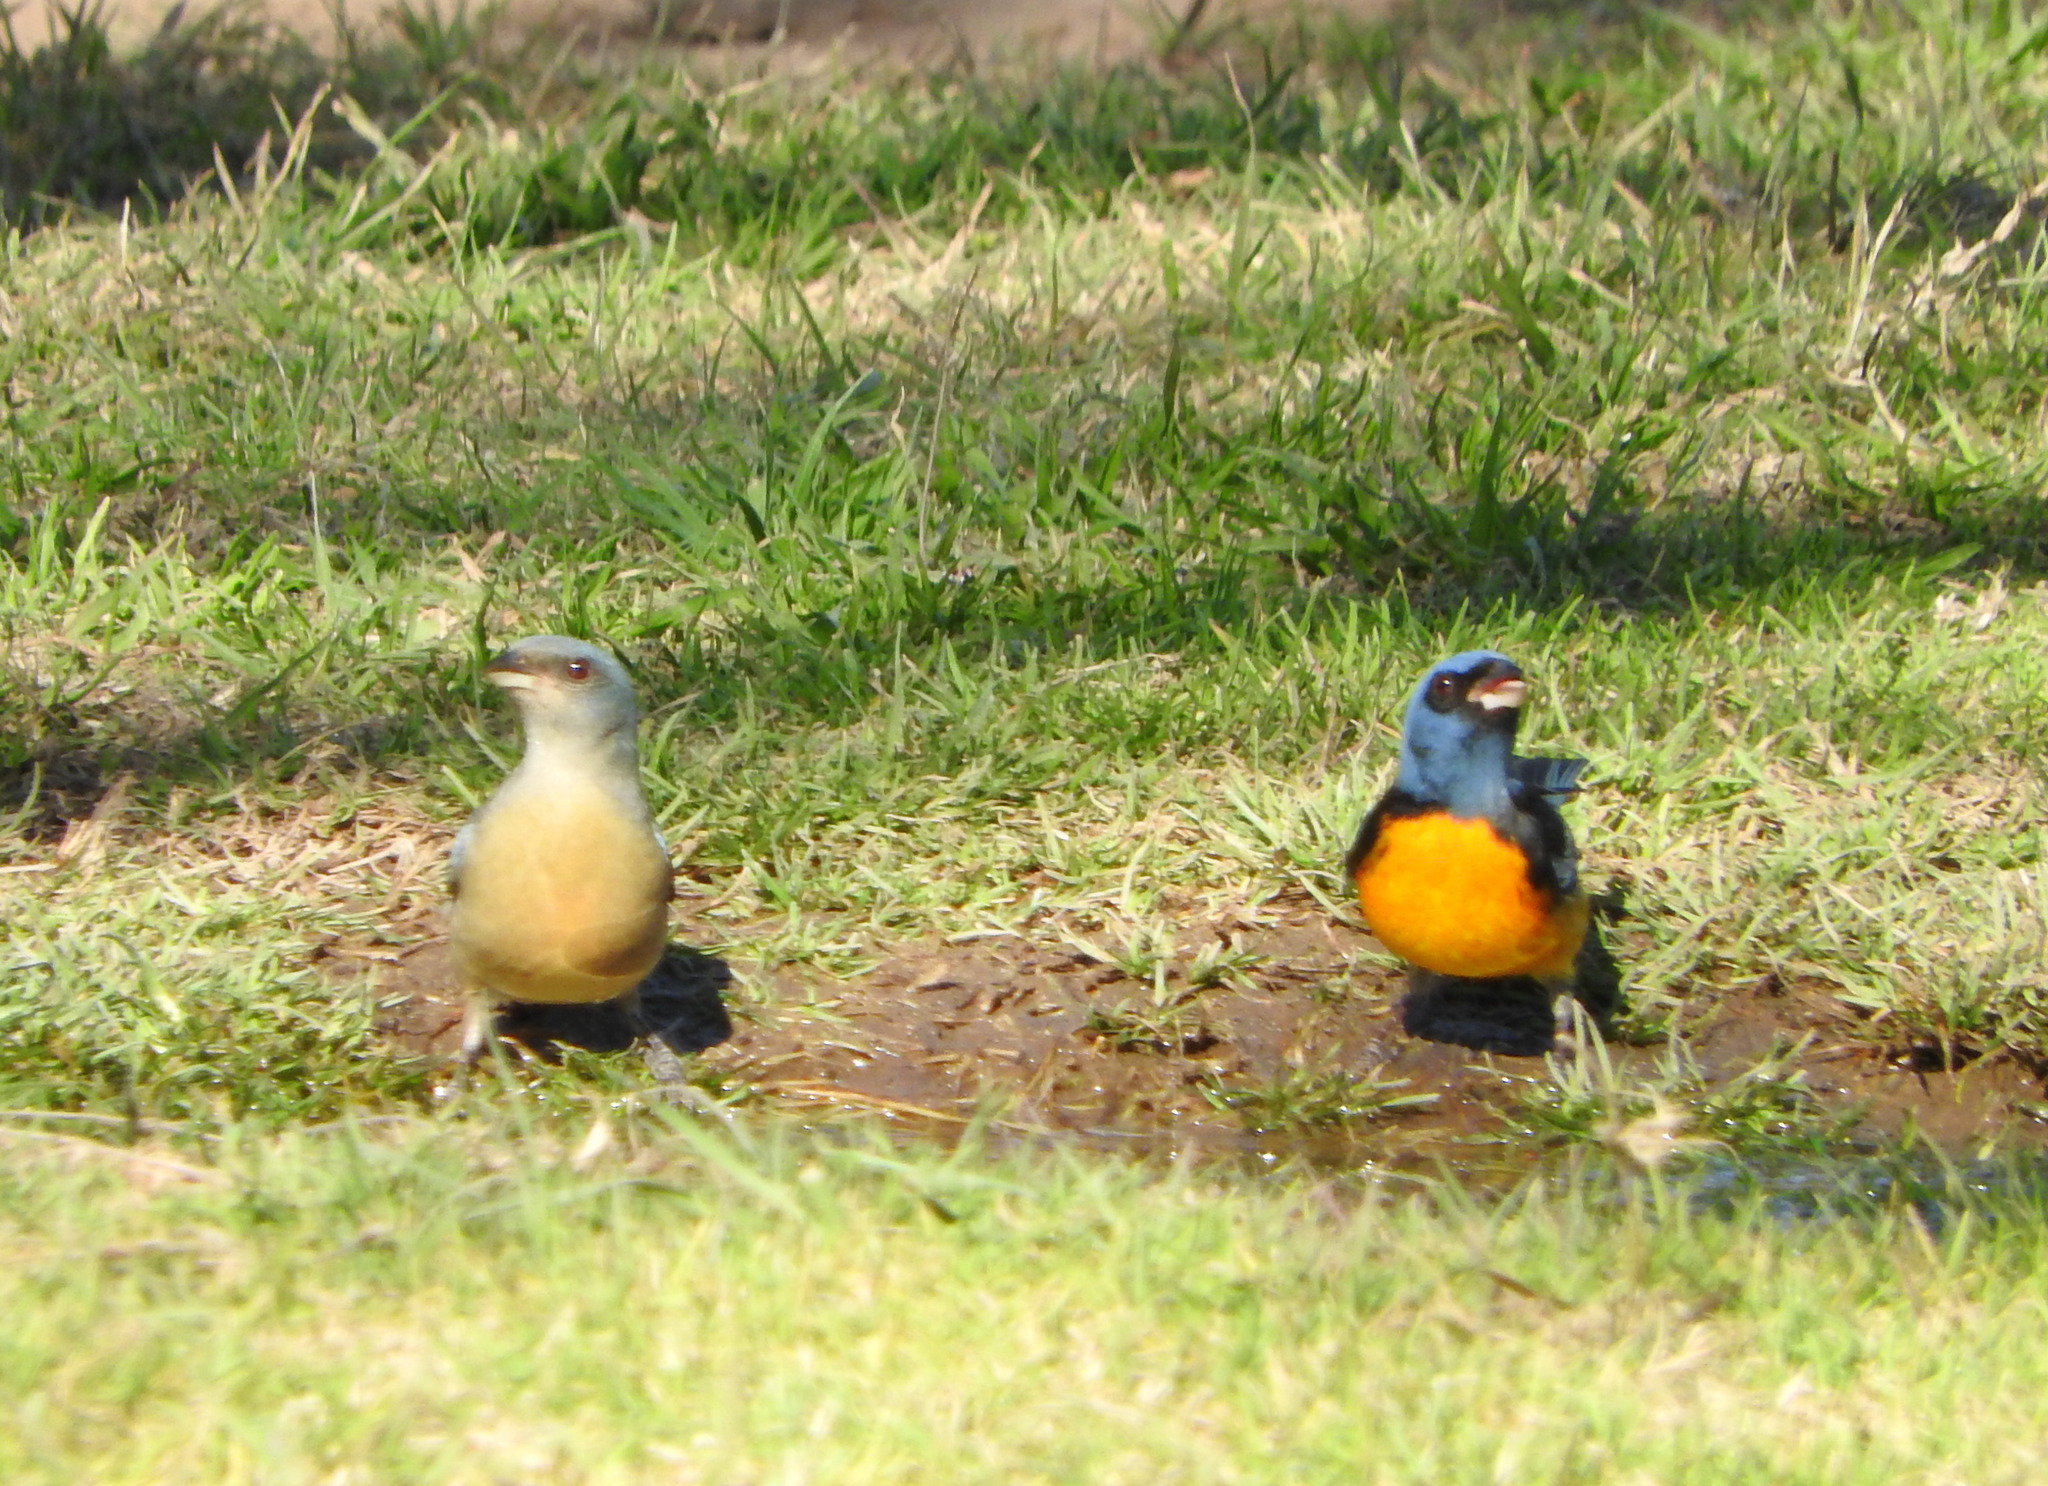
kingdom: Animalia
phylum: Chordata
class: Aves
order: Passeriformes
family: Thraupidae
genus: Rauenia
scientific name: Rauenia bonariensis
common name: Blue-and-yellow tanager
